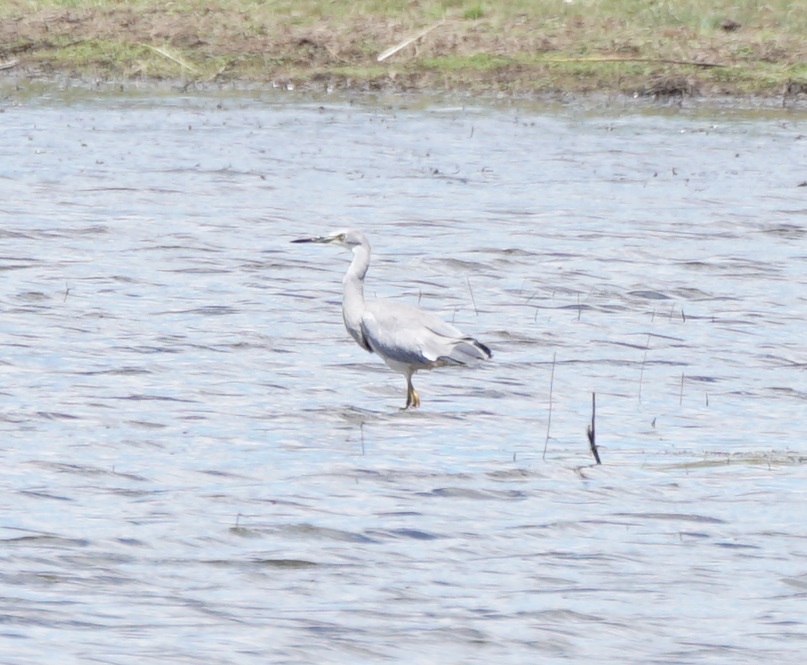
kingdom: Animalia
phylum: Chordata
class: Aves
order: Pelecaniformes
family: Ardeidae
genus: Egretta
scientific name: Egretta novaehollandiae
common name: White-faced heron
